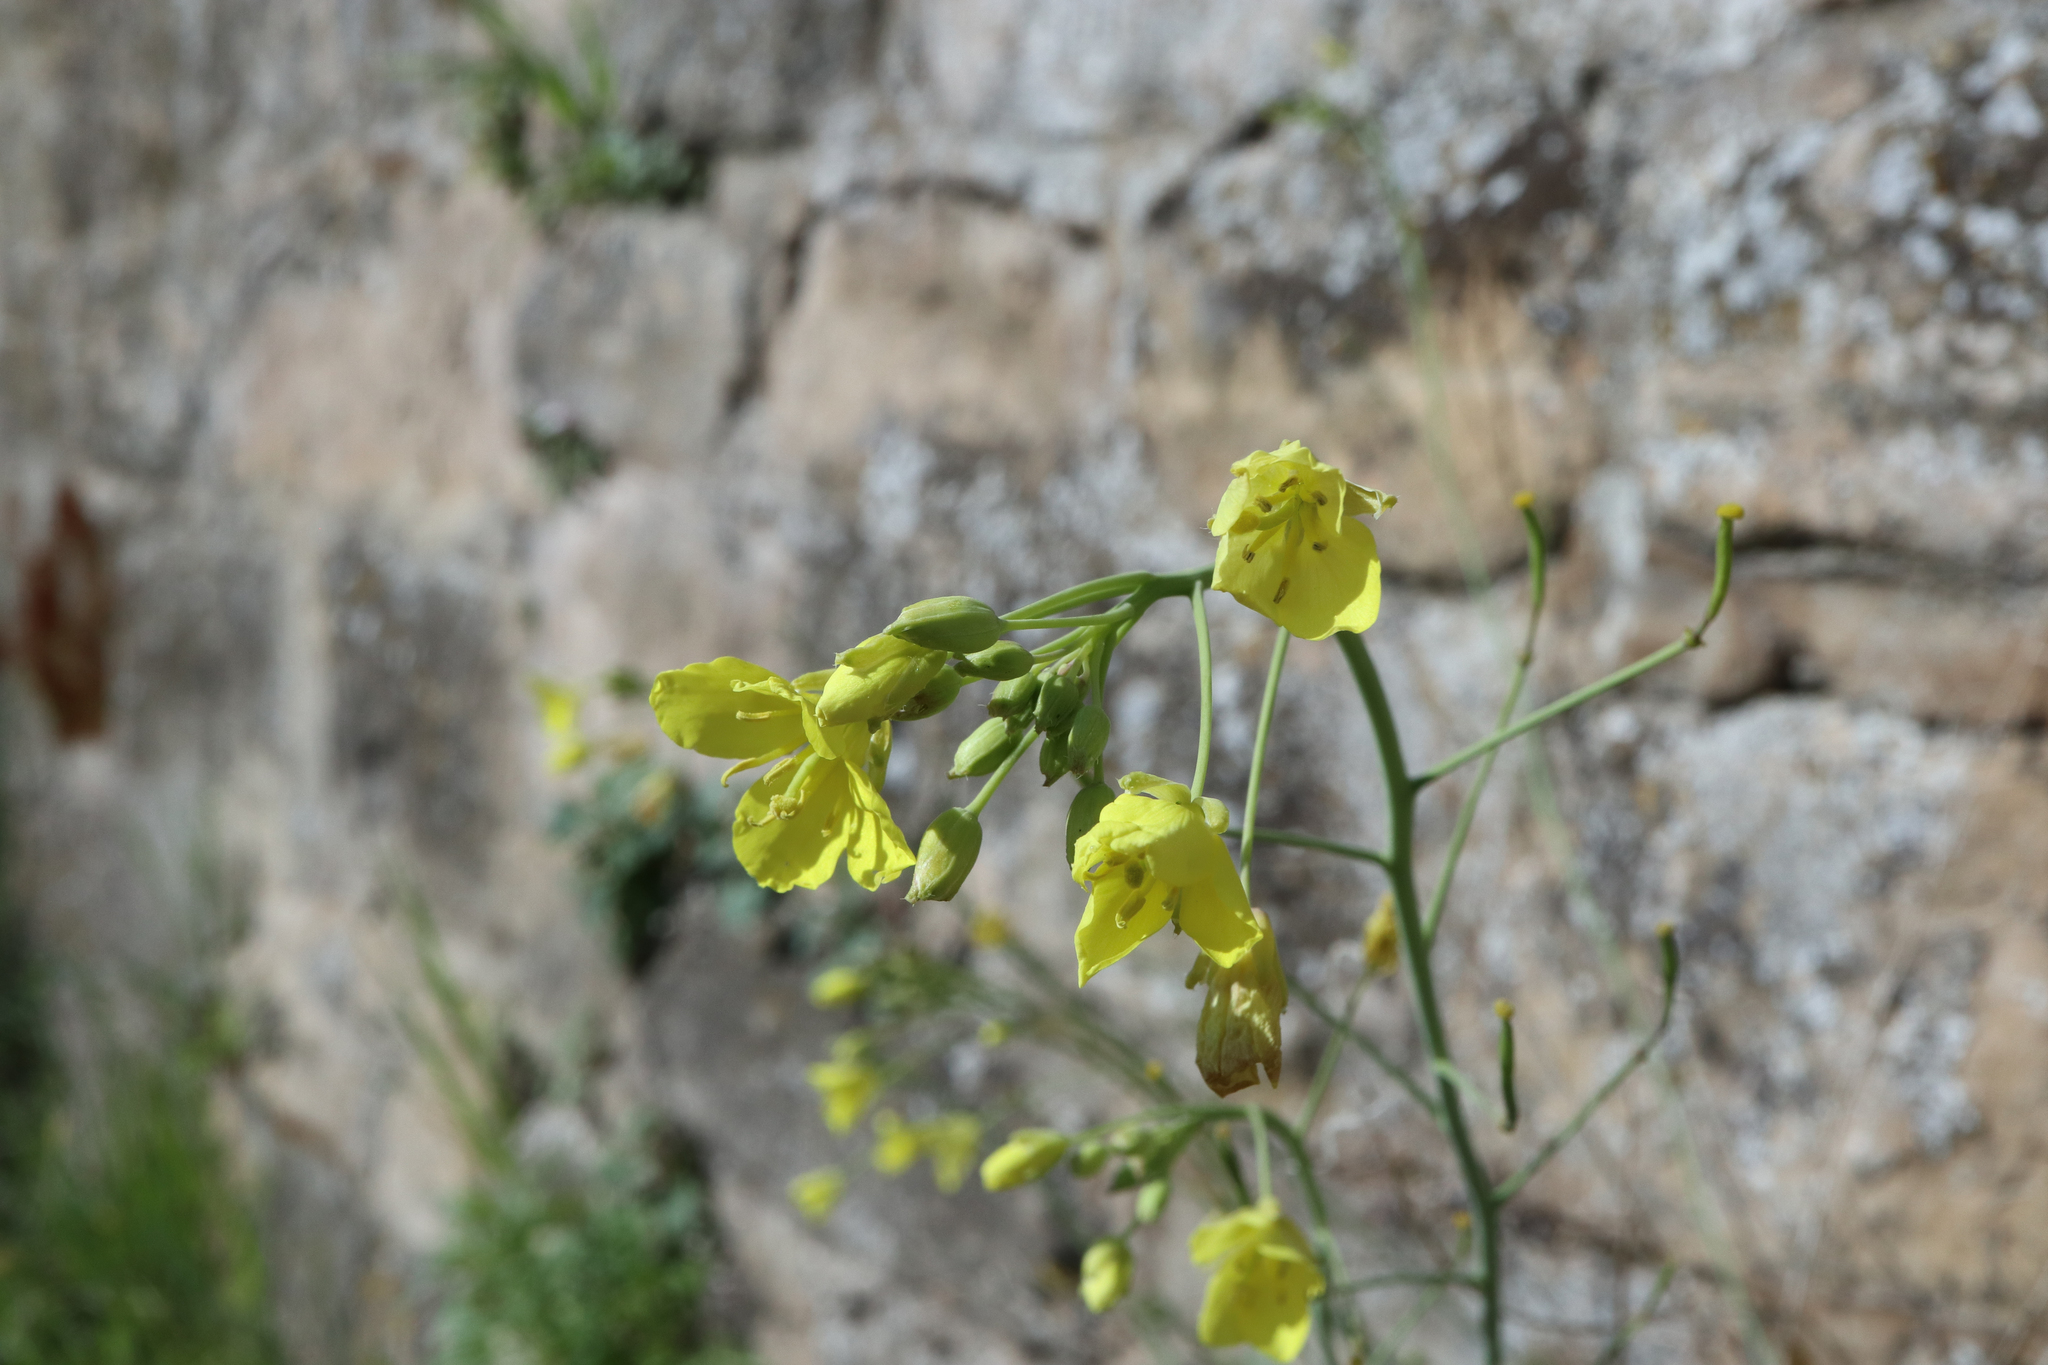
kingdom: Plantae
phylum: Tracheophyta
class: Magnoliopsida
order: Brassicales
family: Brassicaceae
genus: Diplotaxis
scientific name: Diplotaxis tenuifolia
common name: Perennial wall-rocket
